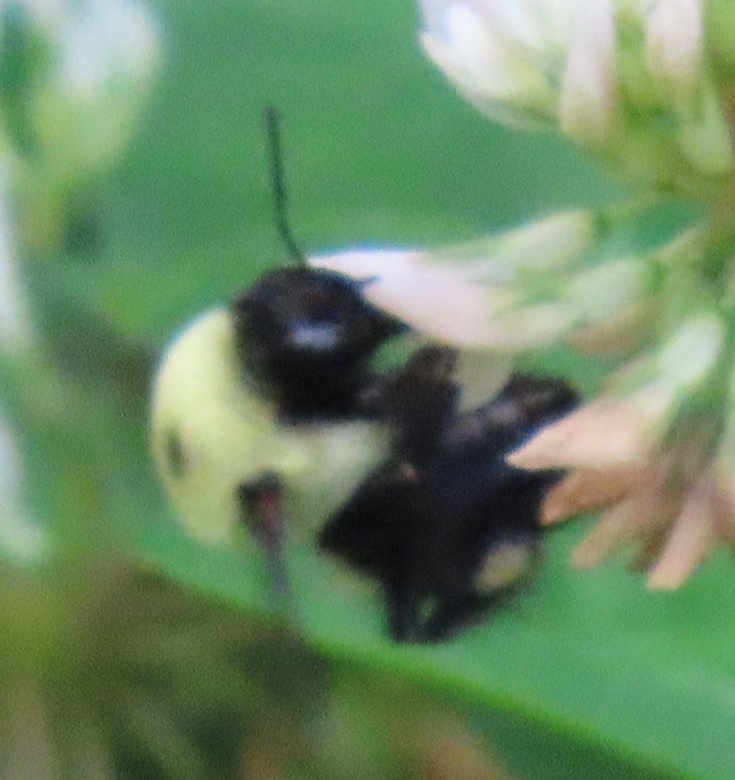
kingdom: Animalia
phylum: Arthropoda
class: Insecta
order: Hymenoptera
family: Apidae
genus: Bombus
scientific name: Bombus griseocollis
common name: Brown-belted bumble bee
